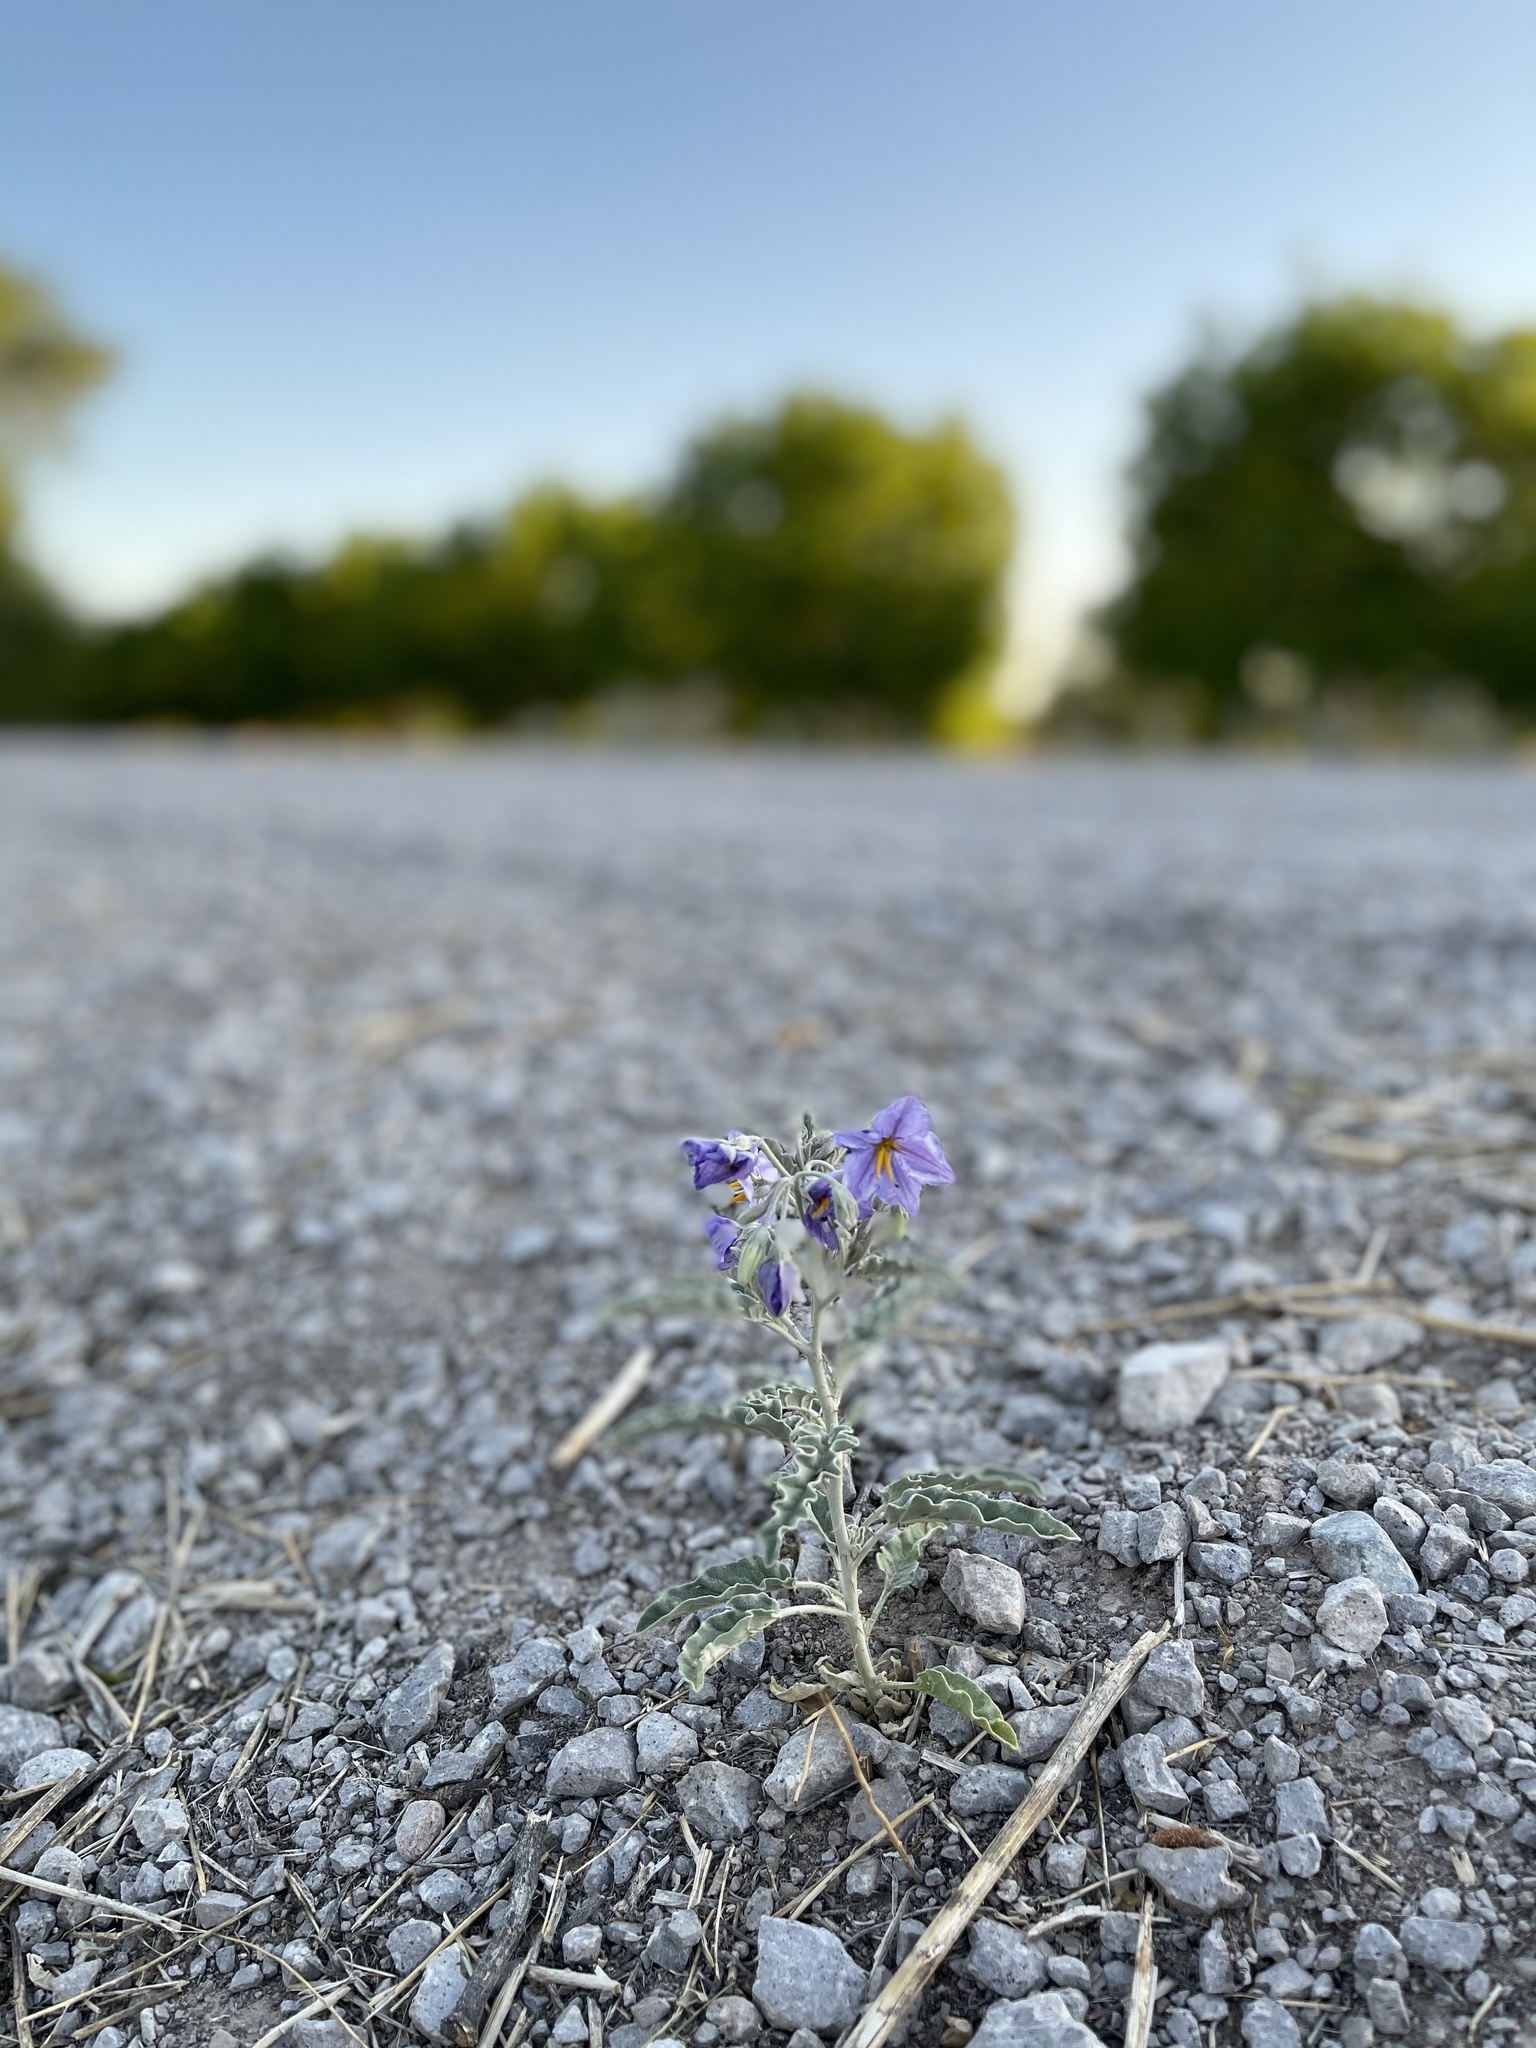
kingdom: Plantae
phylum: Tracheophyta
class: Magnoliopsida
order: Solanales
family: Solanaceae
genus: Solanum
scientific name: Solanum elaeagnifolium
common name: Silverleaf nightshade
